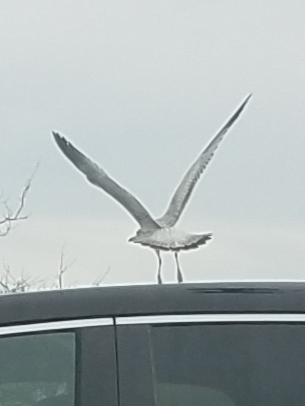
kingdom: Animalia
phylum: Chordata
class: Aves
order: Charadriiformes
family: Laridae
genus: Larus
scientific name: Larus delawarensis
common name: Ring-billed gull
